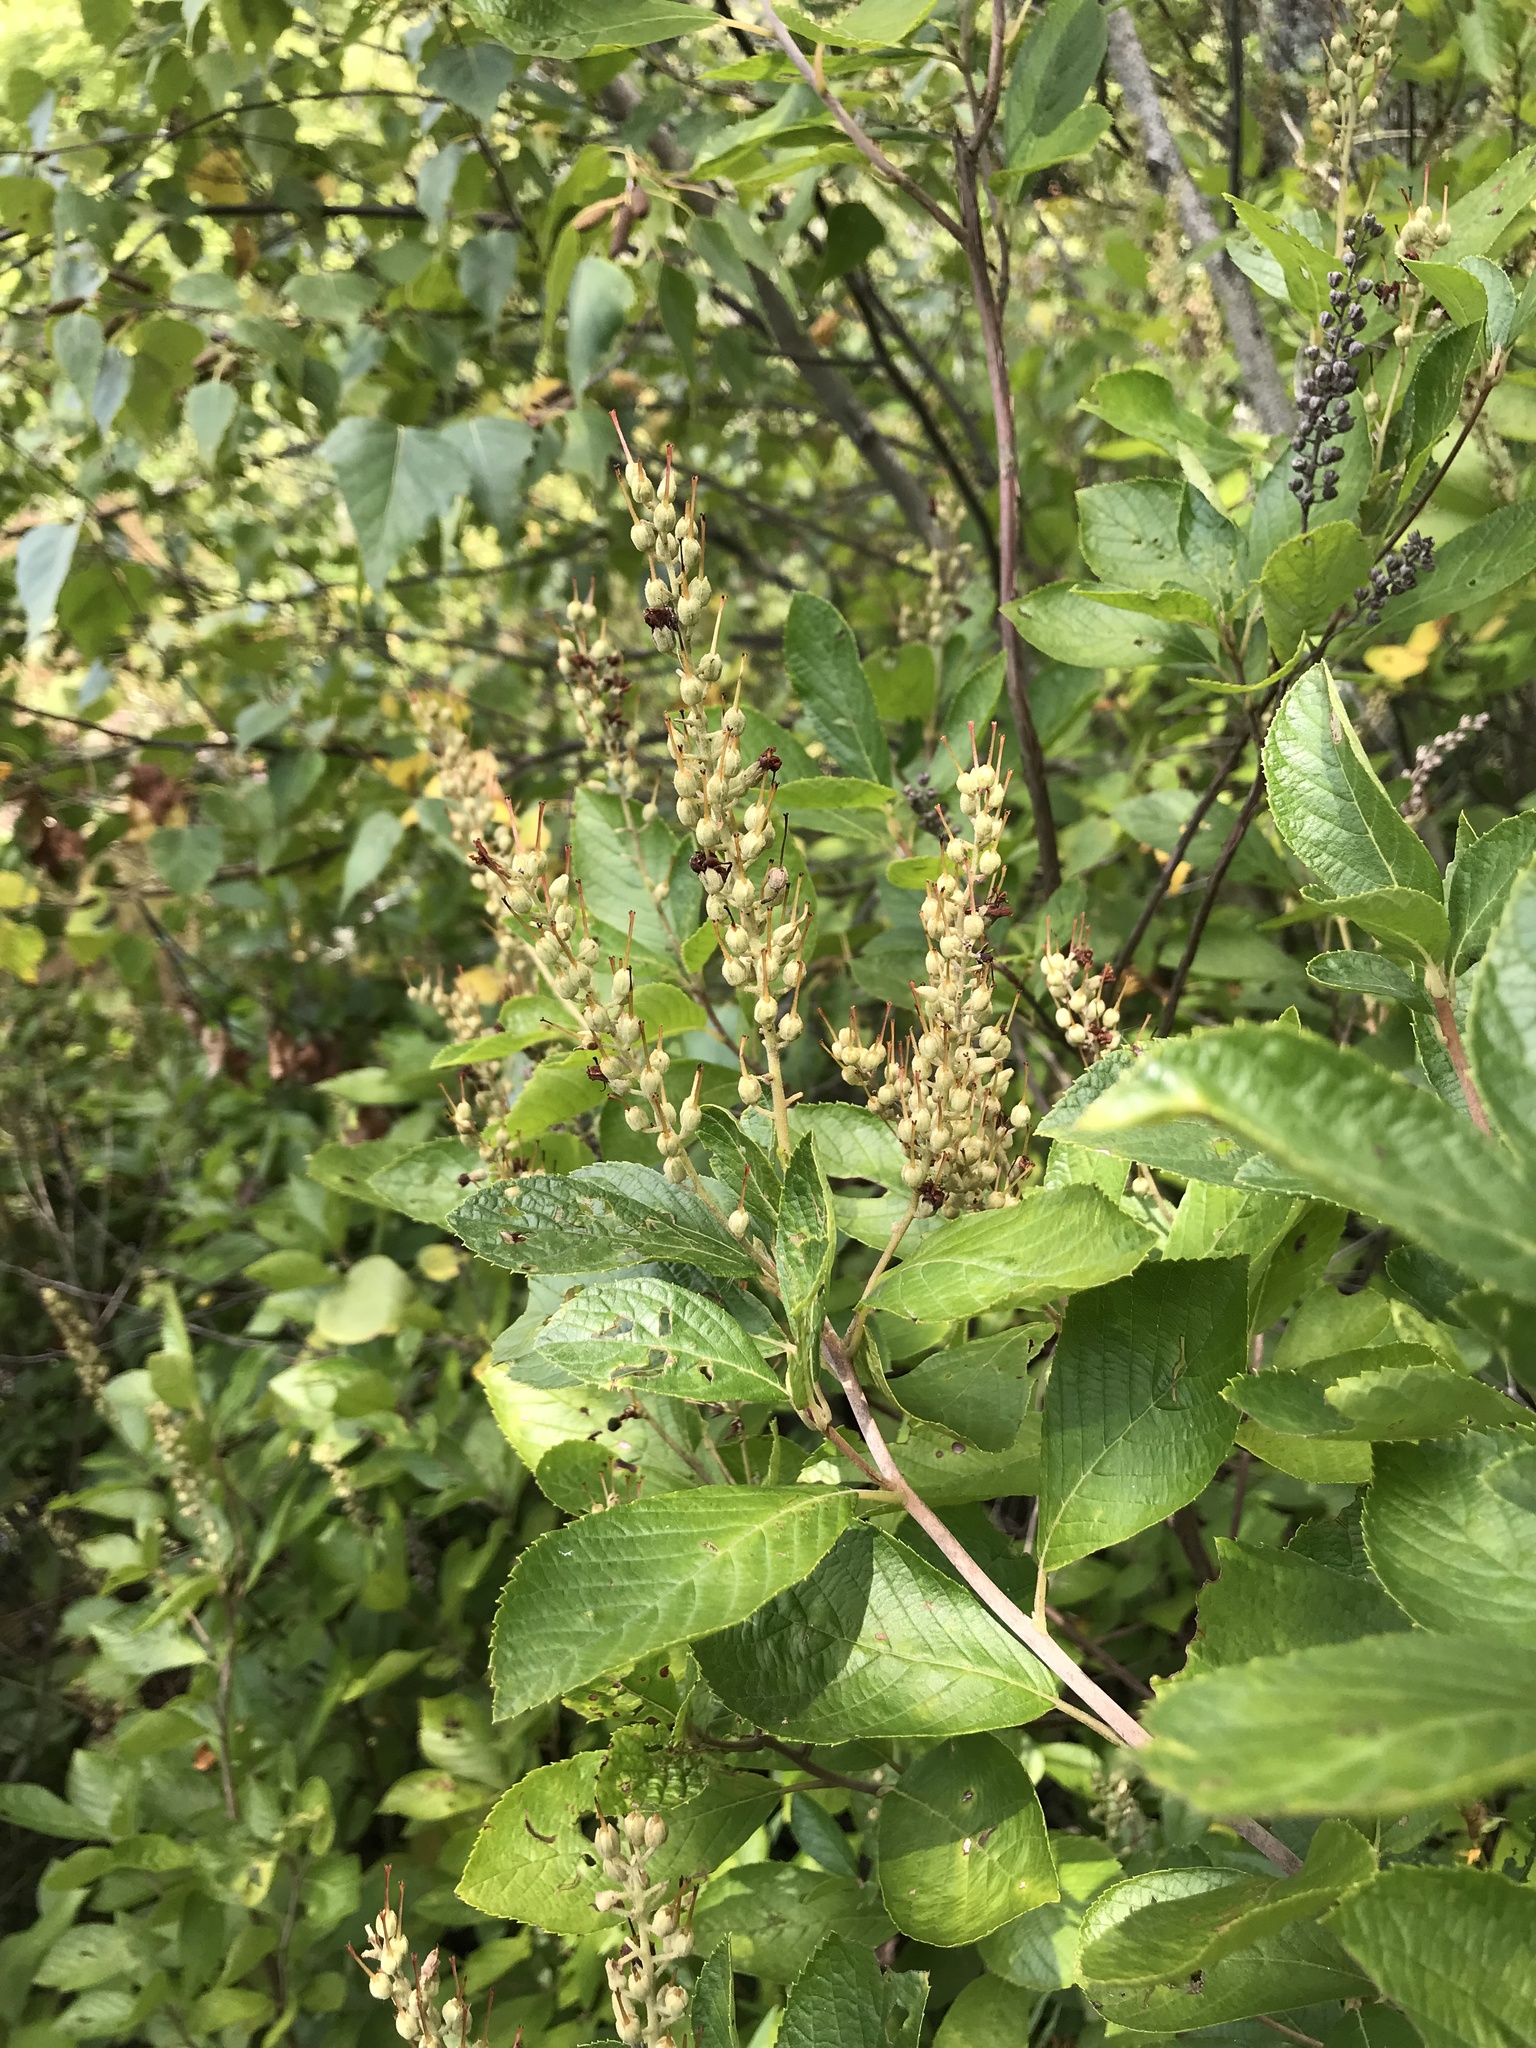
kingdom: Plantae
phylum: Tracheophyta
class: Magnoliopsida
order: Ericales
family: Clethraceae
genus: Clethra
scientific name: Clethra alnifolia
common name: Sweet pepperbush
